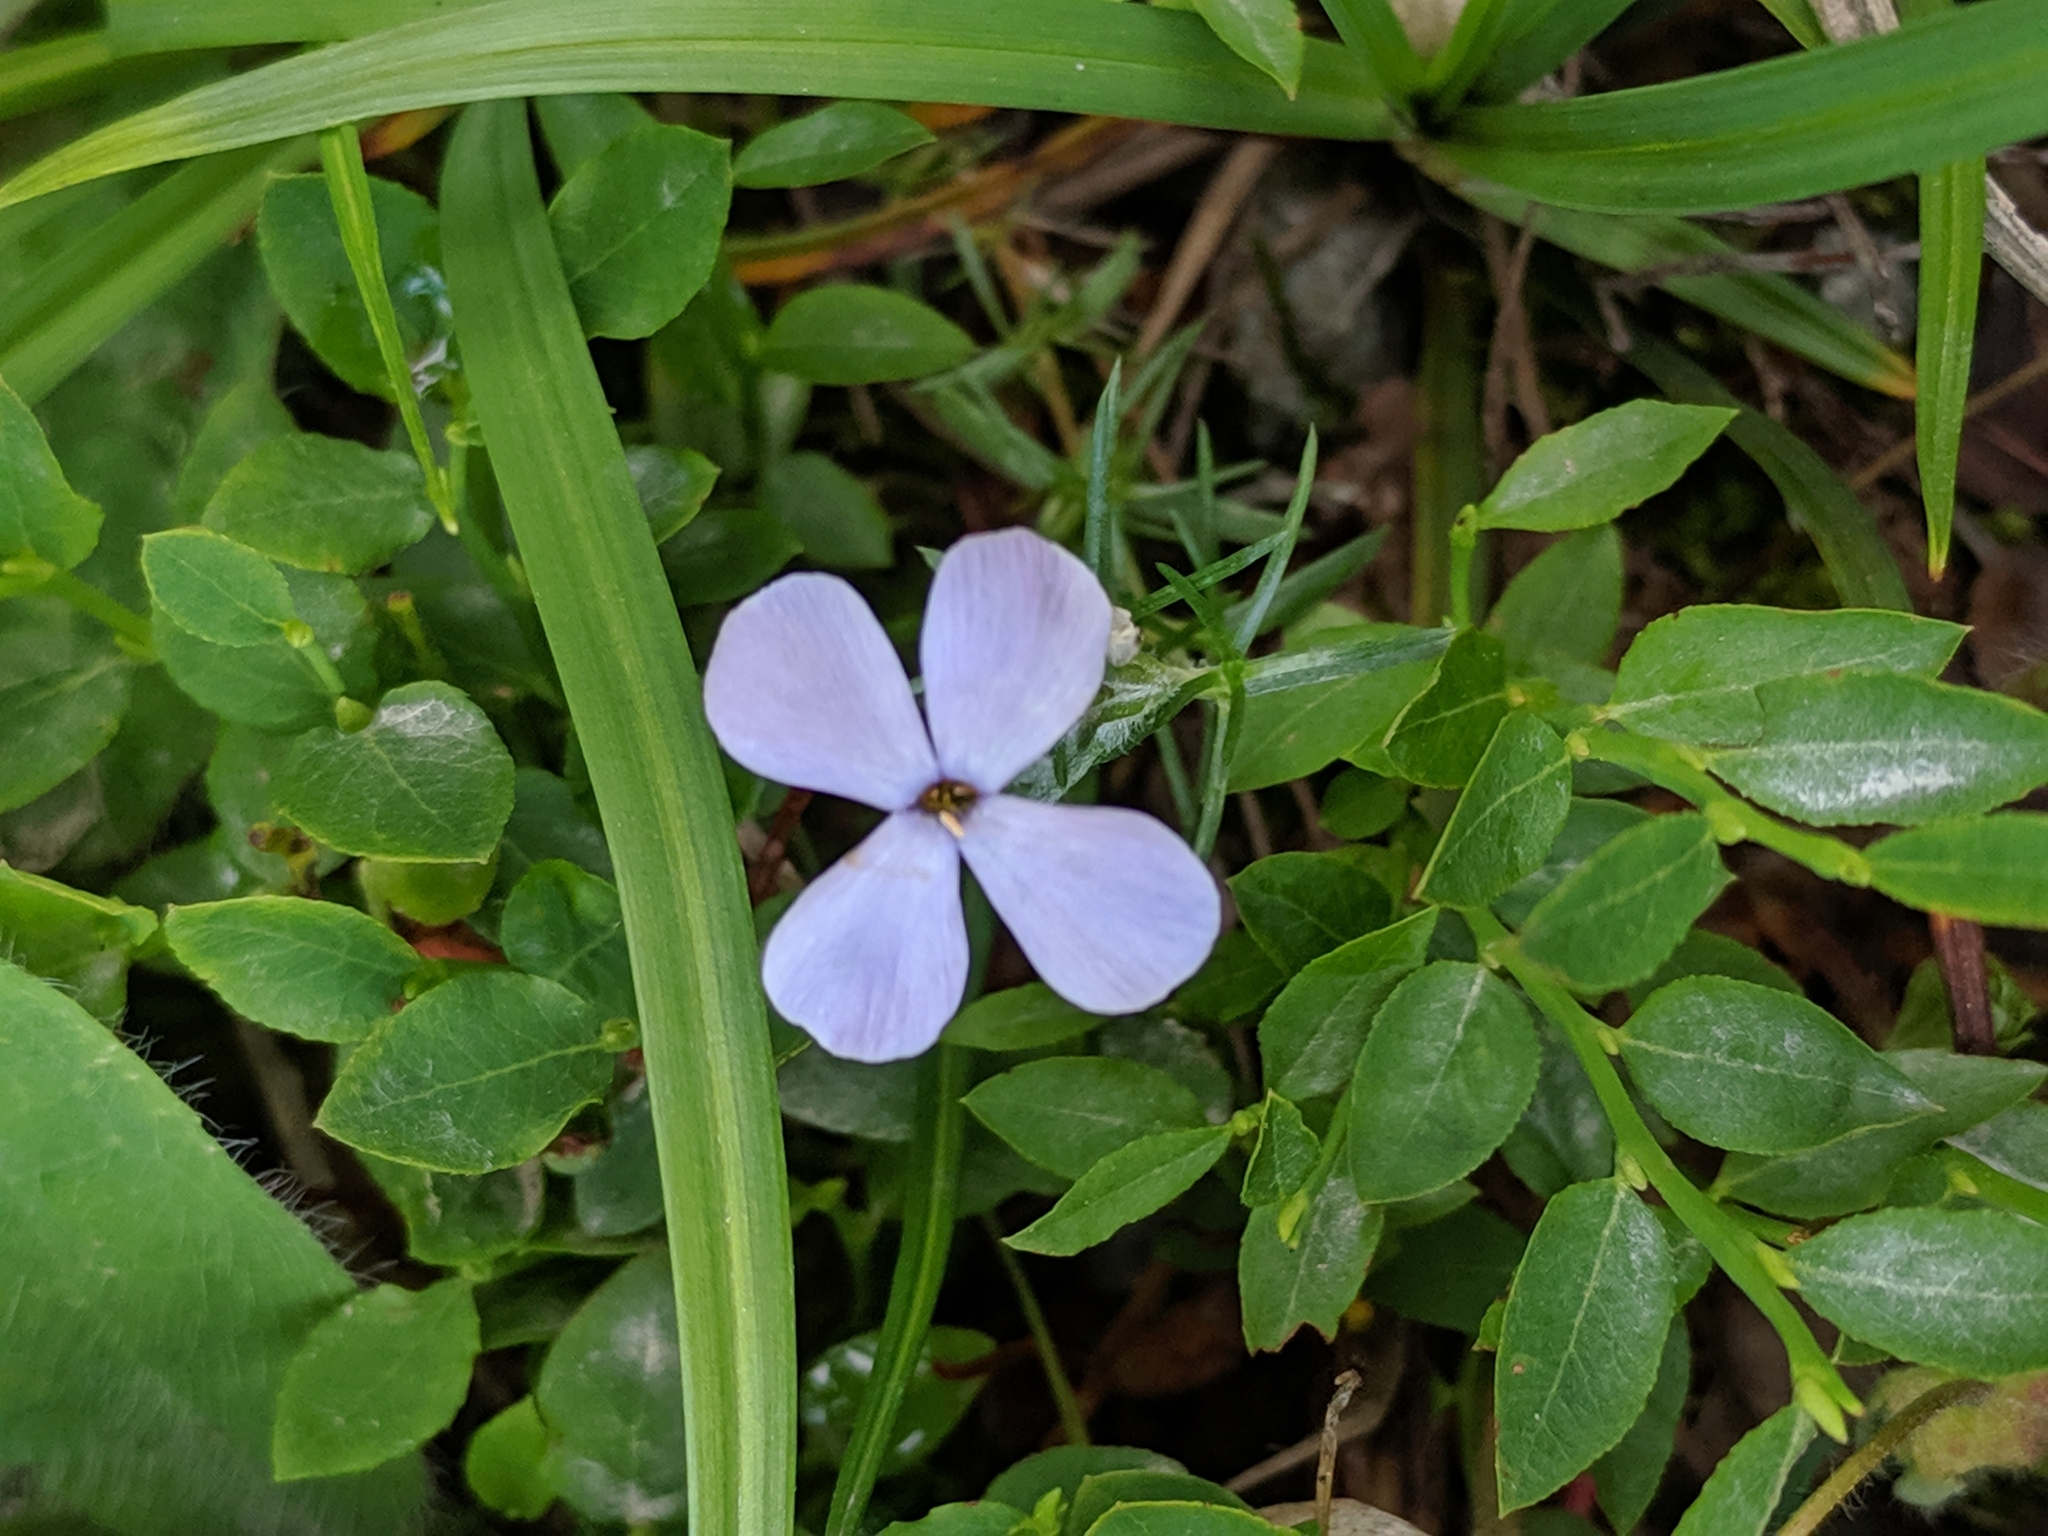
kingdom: Plantae
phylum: Tracheophyta
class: Magnoliopsida
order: Ericales
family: Polemoniaceae
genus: Phlox
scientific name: Phlox diffusa
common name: Mat phlox
